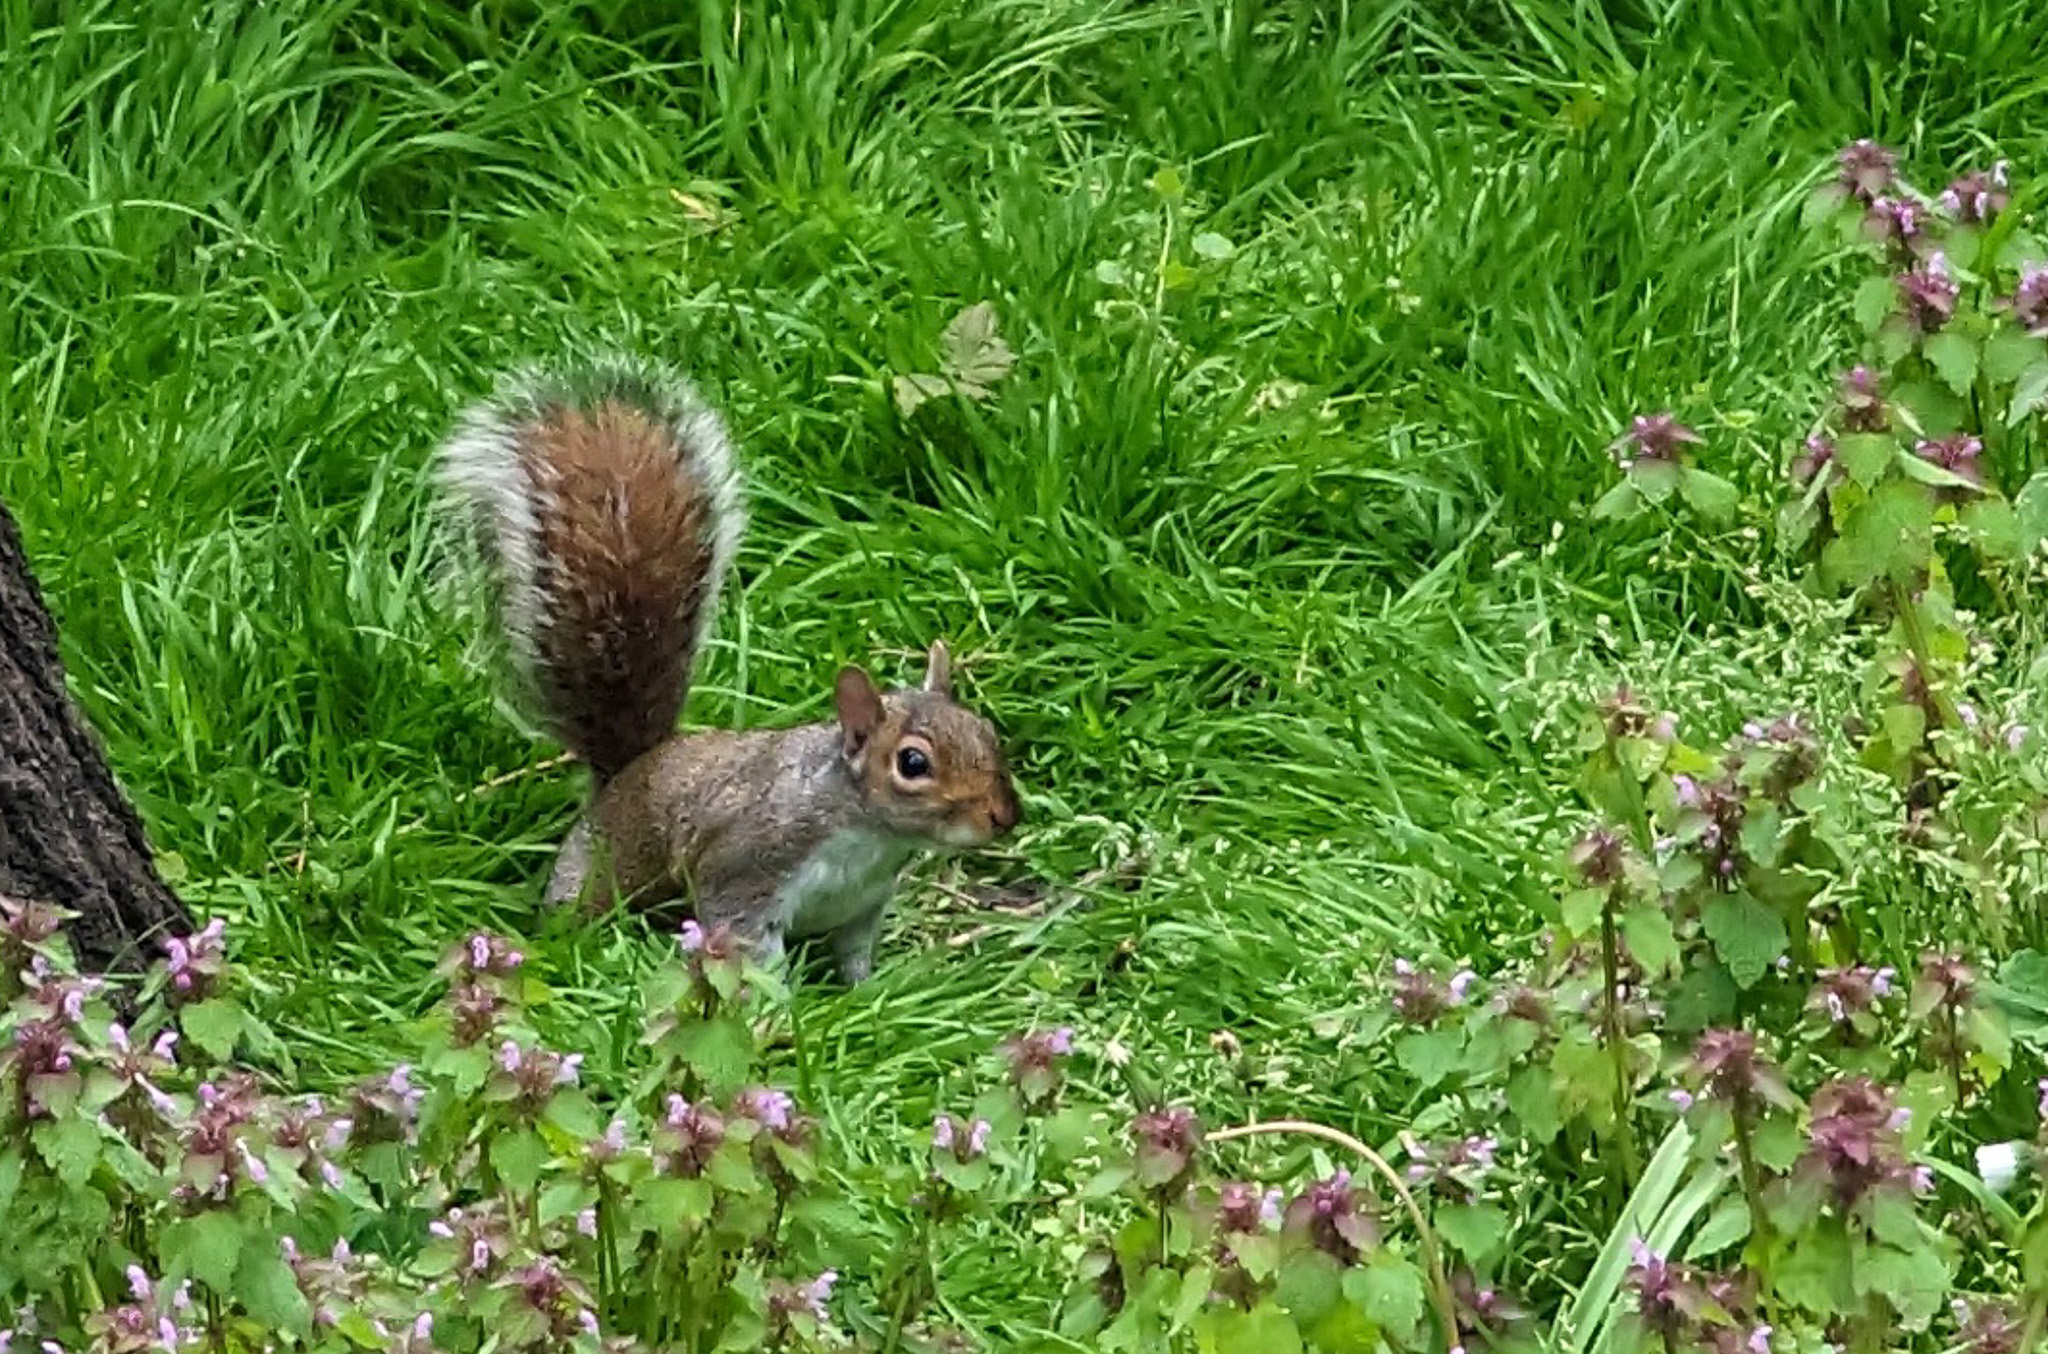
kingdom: Animalia
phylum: Chordata
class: Mammalia
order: Rodentia
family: Sciuridae
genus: Sciurus
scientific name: Sciurus carolinensis
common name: Eastern gray squirrel
